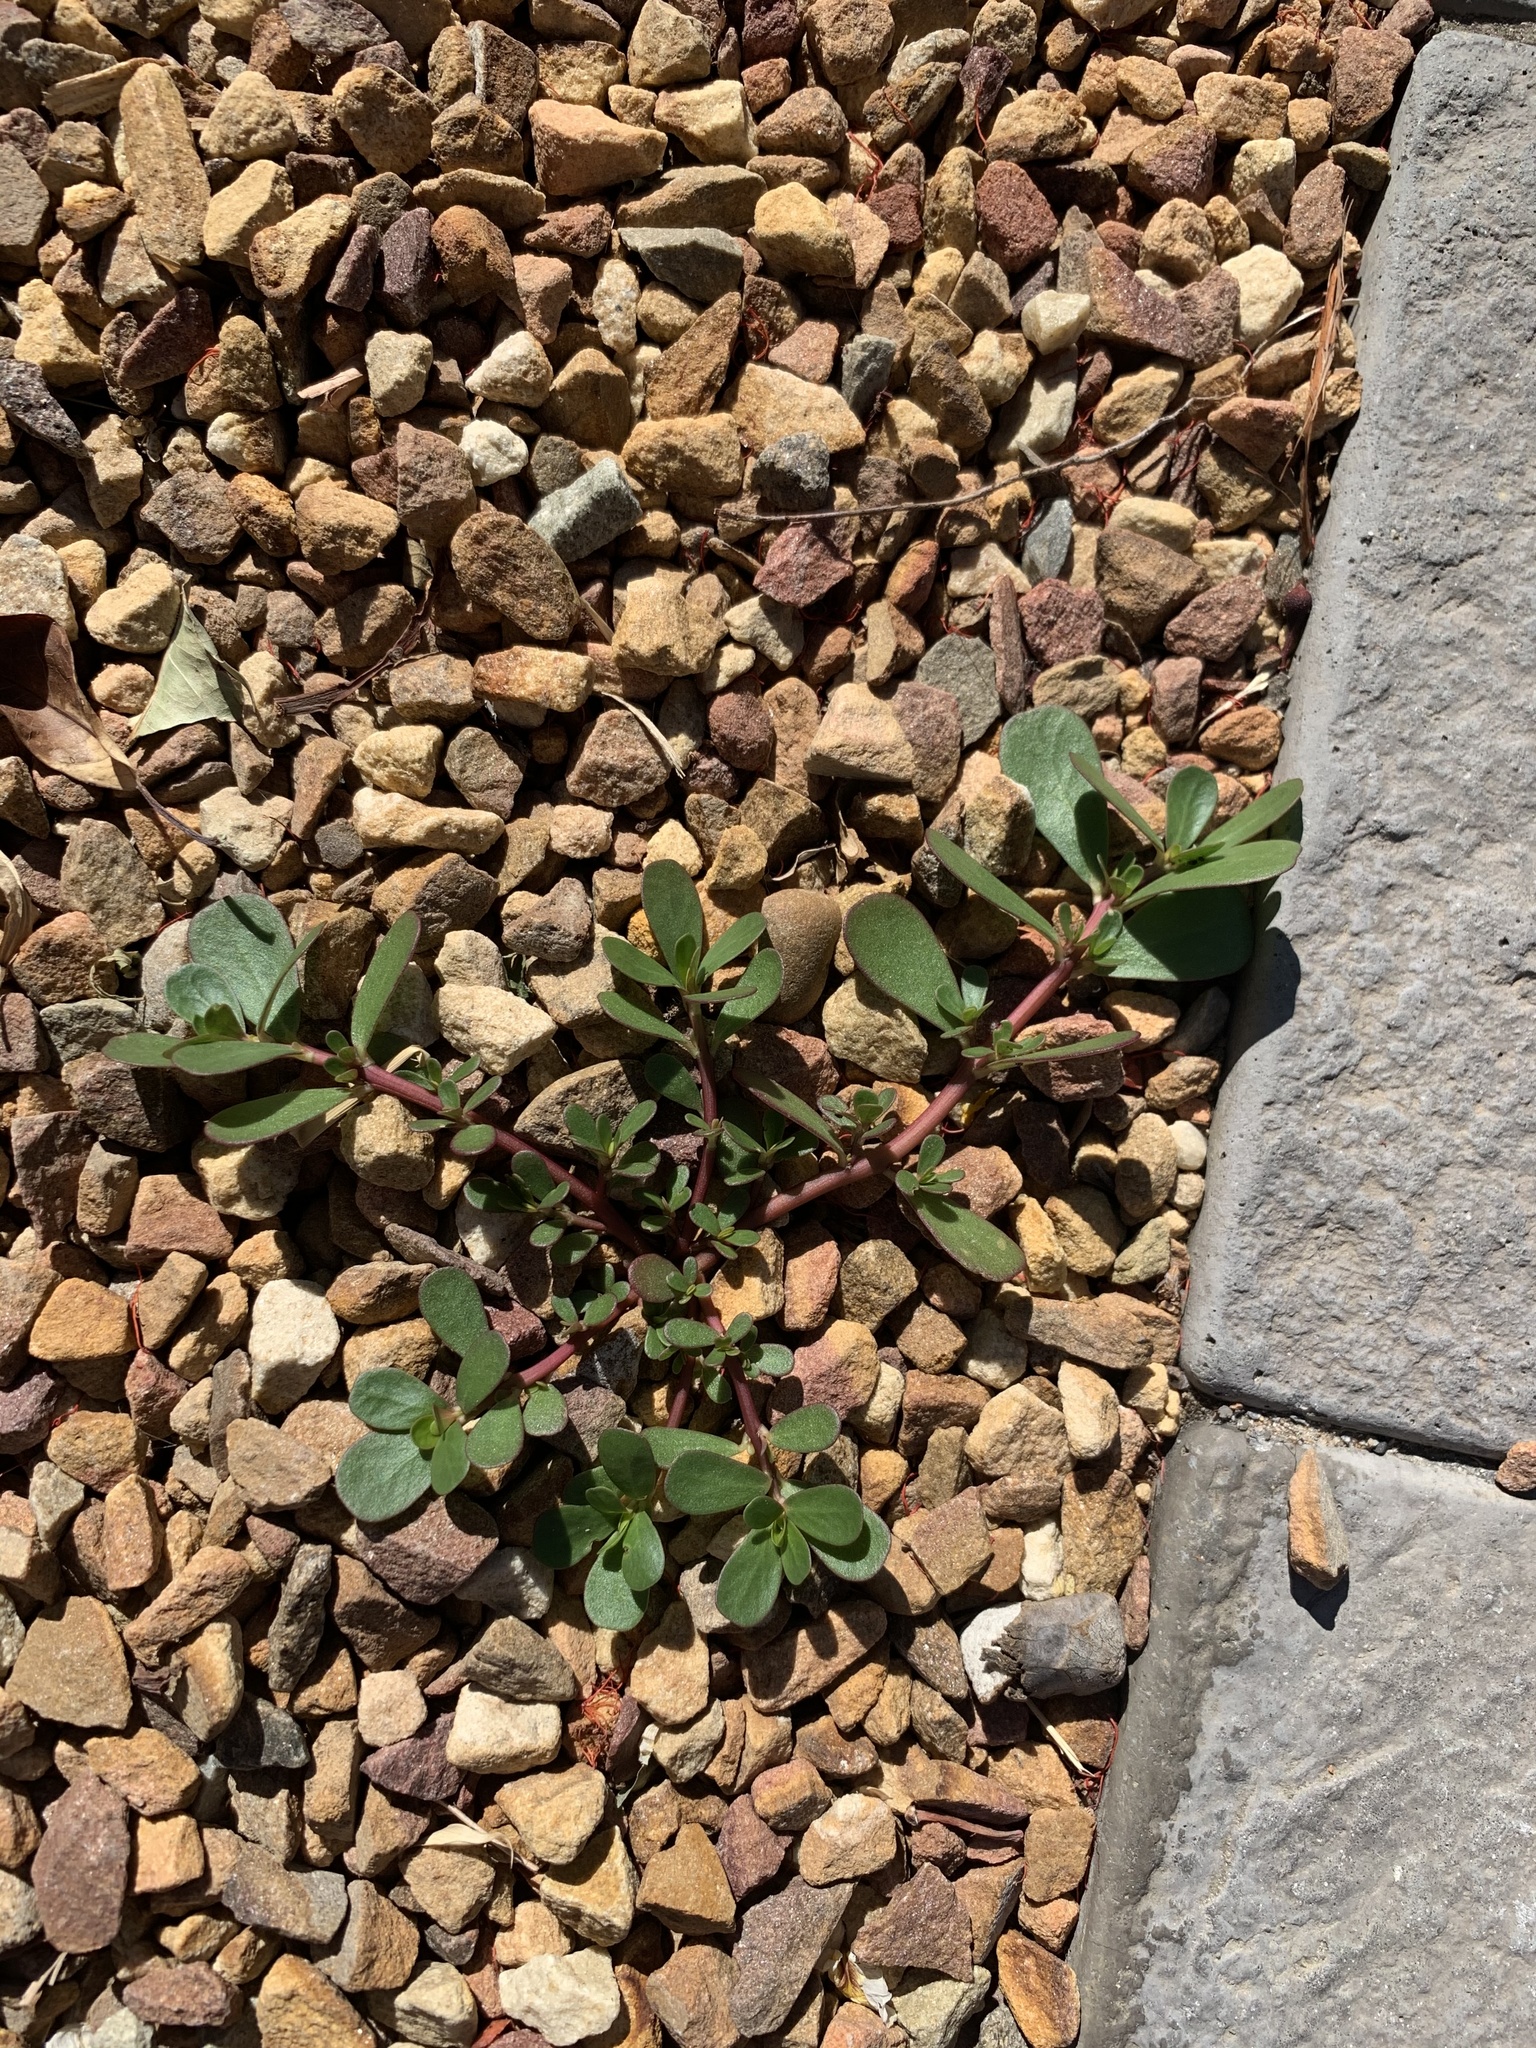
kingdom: Plantae
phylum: Tracheophyta
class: Magnoliopsida
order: Caryophyllales
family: Portulacaceae
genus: Portulaca
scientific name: Portulaca oleracea
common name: Common purslane
